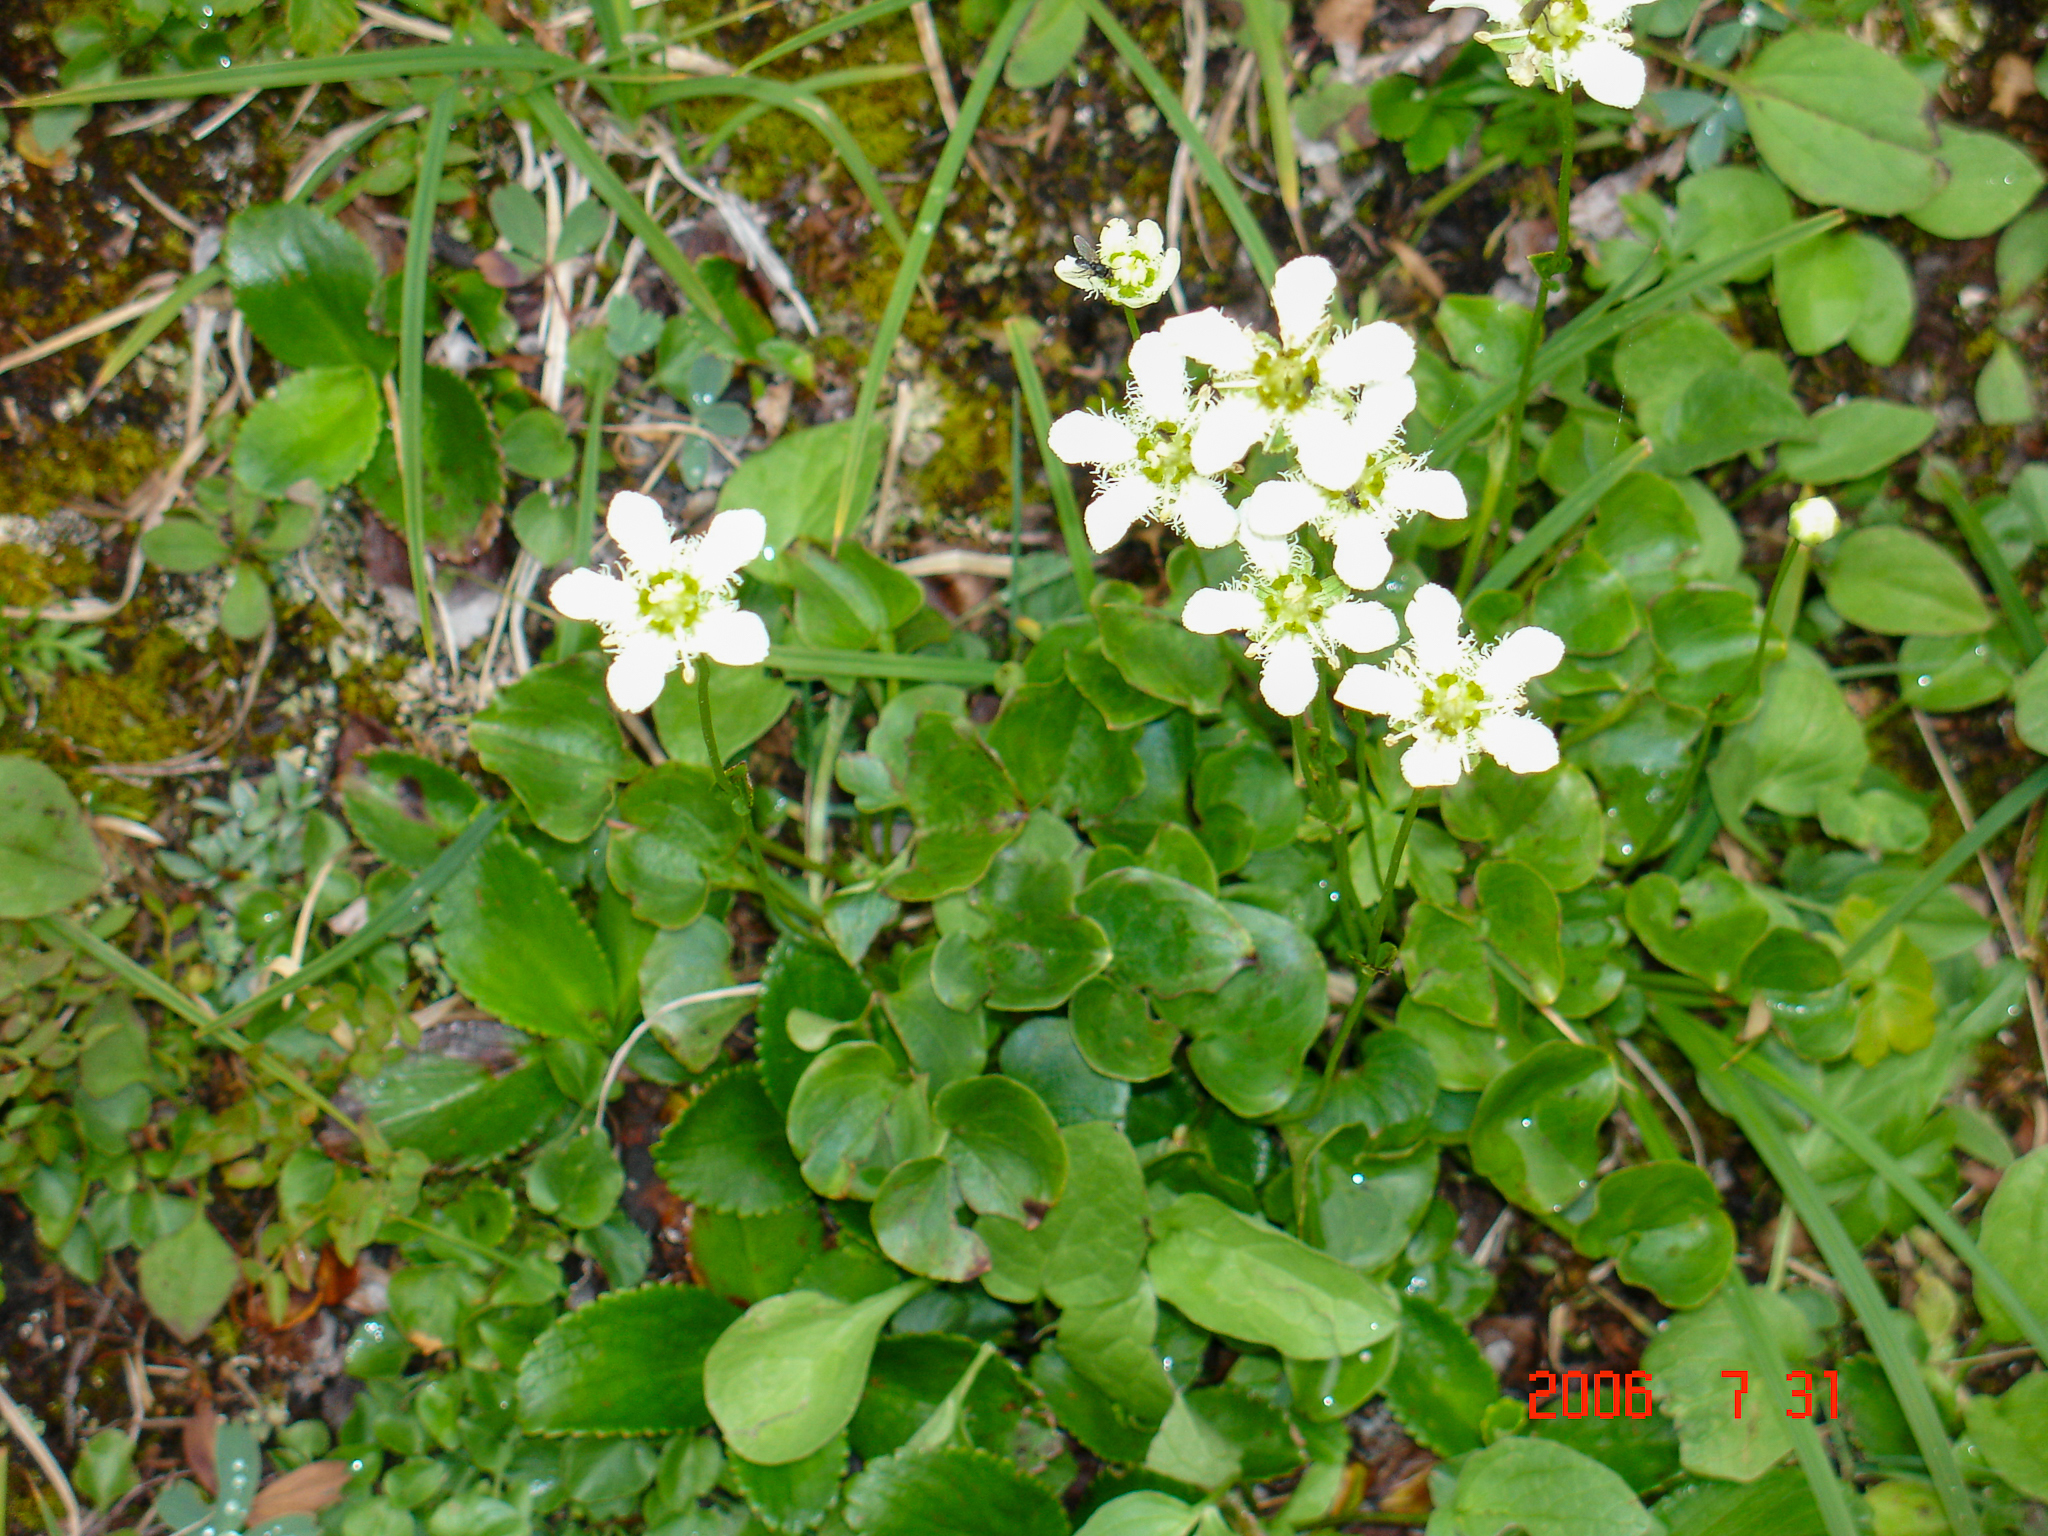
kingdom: Plantae
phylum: Tracheophyta
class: Magnoliopsida
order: Celastrales
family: Parnassiaceae
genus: Parnassia
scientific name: Parnassia fimbriata
